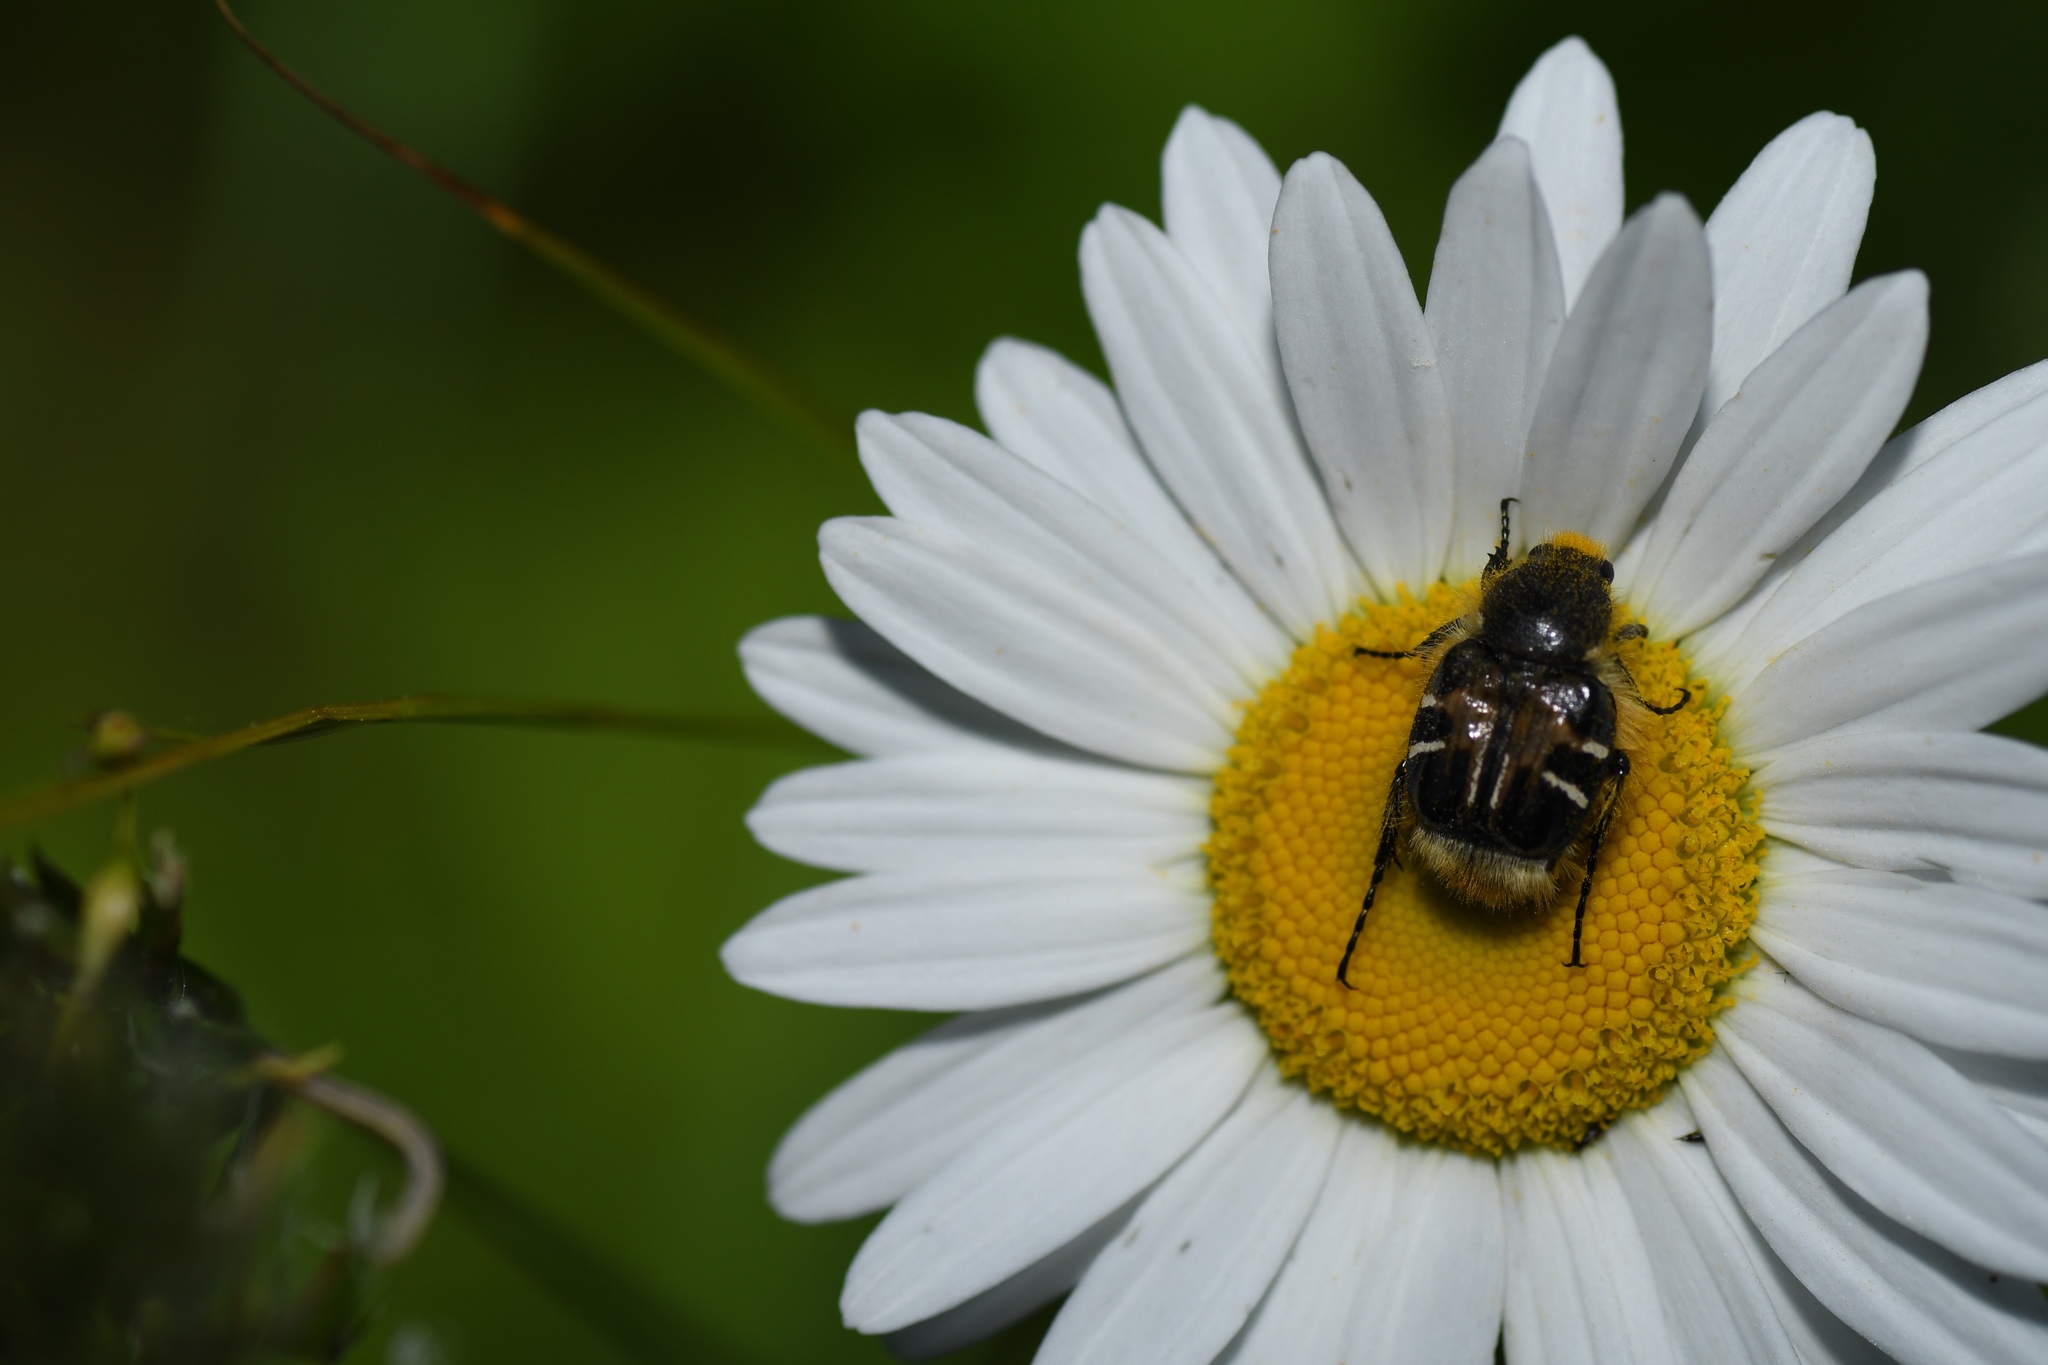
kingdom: Animalia
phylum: Arthropoda
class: Insecta
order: Coleoptera
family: Scarabaeidae
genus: Trichiotinus
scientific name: Trichiotinus assimilis
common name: Bee-mimic beetle
